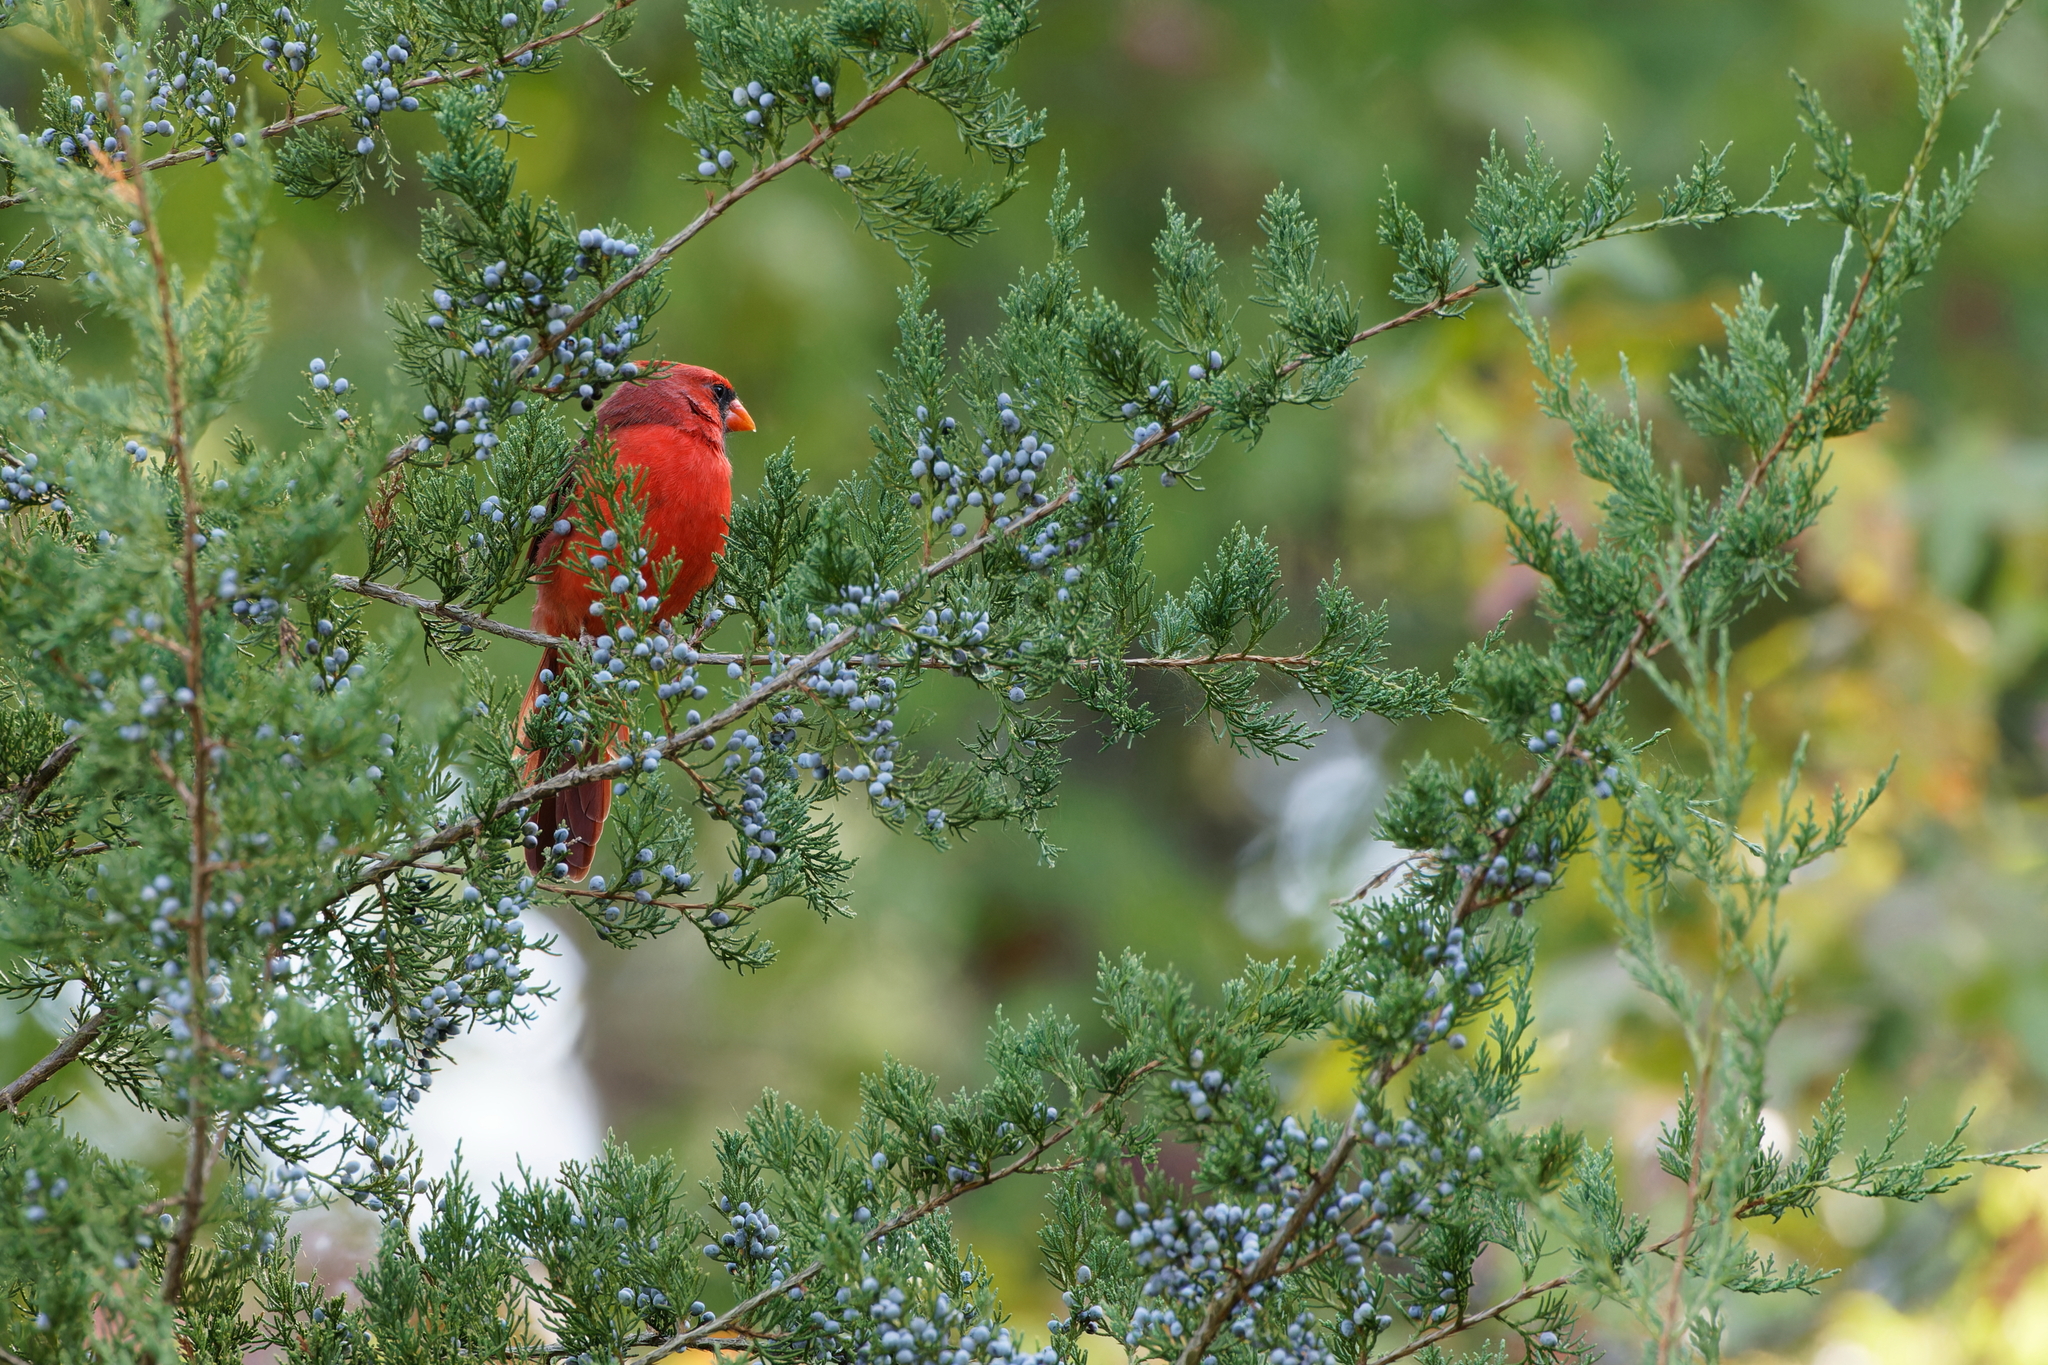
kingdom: Animalia
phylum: Chordata
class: Aves
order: Passeriformes
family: Cardinalidae
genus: Cardinalis
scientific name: Cardinalis cardinalis
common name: Northern cardinal
